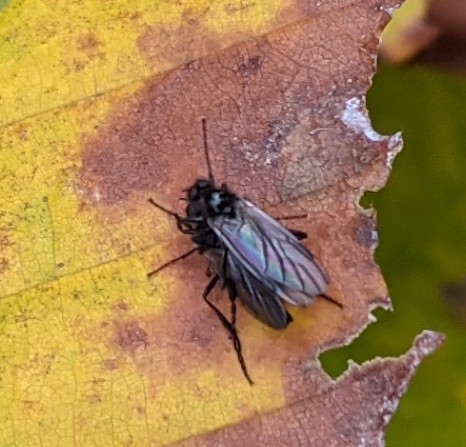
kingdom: Animalia
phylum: Arthropoda
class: Insecta
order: Diptera
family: Bibionidae
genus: Bibio
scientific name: Bibio slossonae
